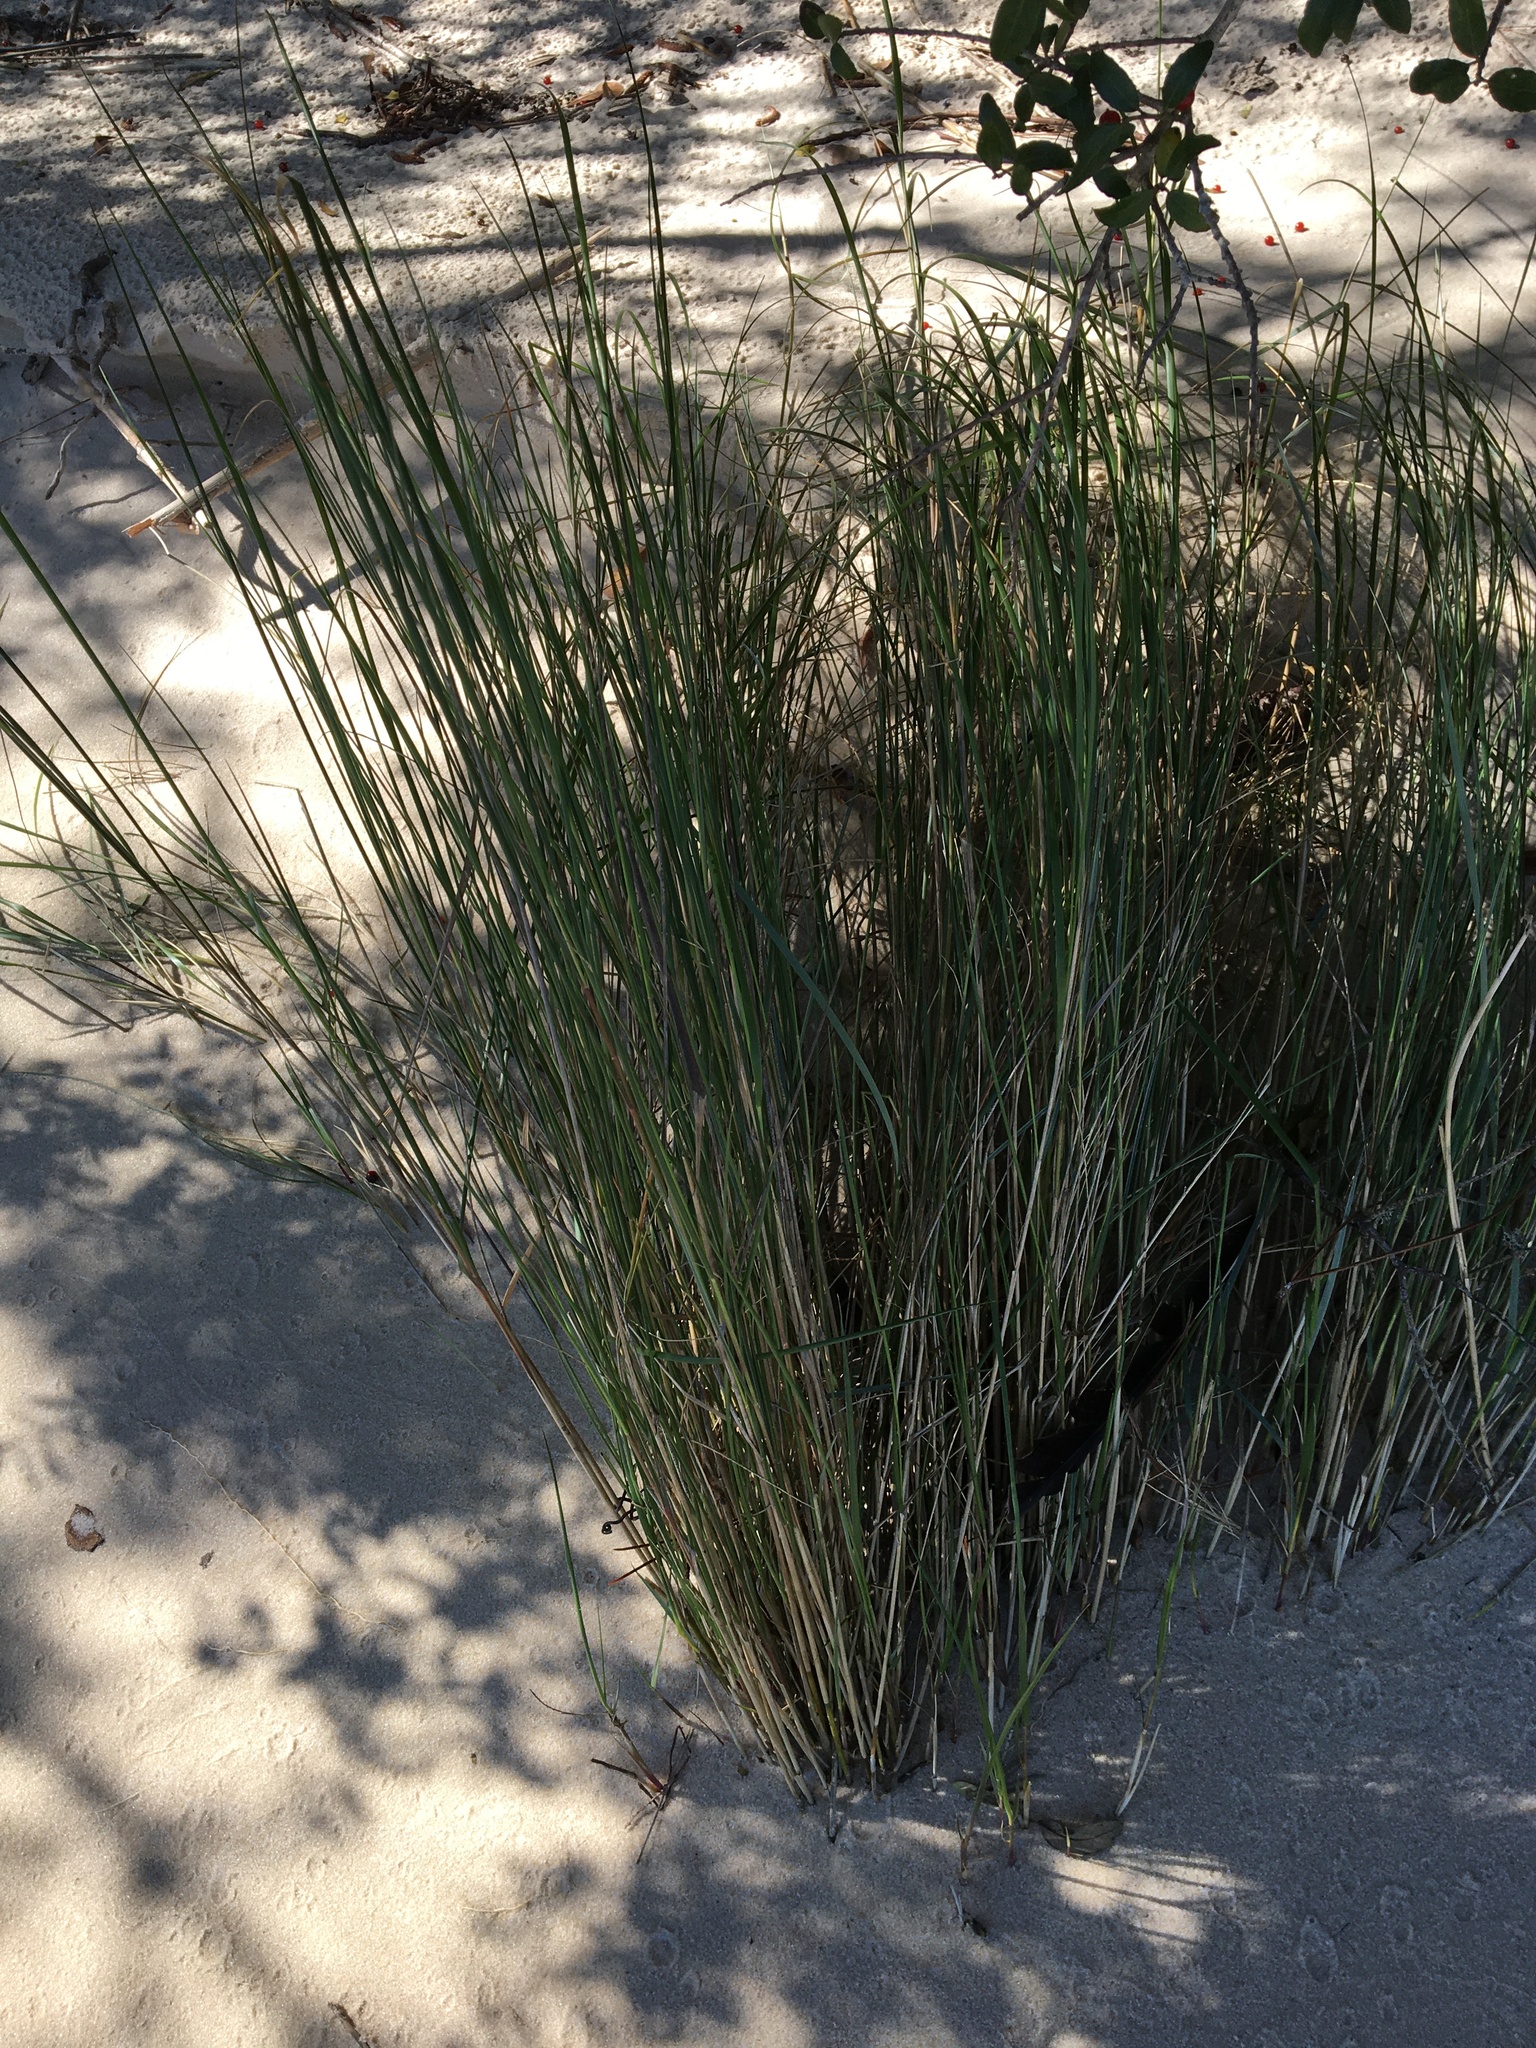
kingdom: Plantae
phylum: Tracheophyta
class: Liliopsida
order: Poales
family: Juncaceae
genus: Juncus
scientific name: Juncus roemerianus
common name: Roemer's rush
